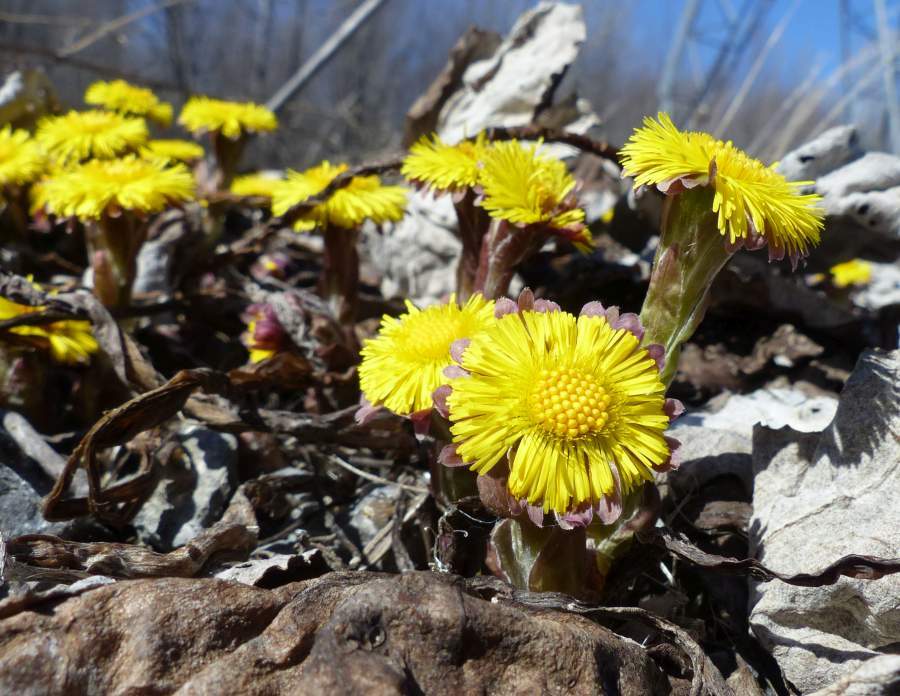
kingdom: Plantae
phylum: Tracheophyta
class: Magnoliopsida
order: Asterales
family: Asteraceae
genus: Tussilago
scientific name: Tussilago farfara
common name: Coltsfoot
